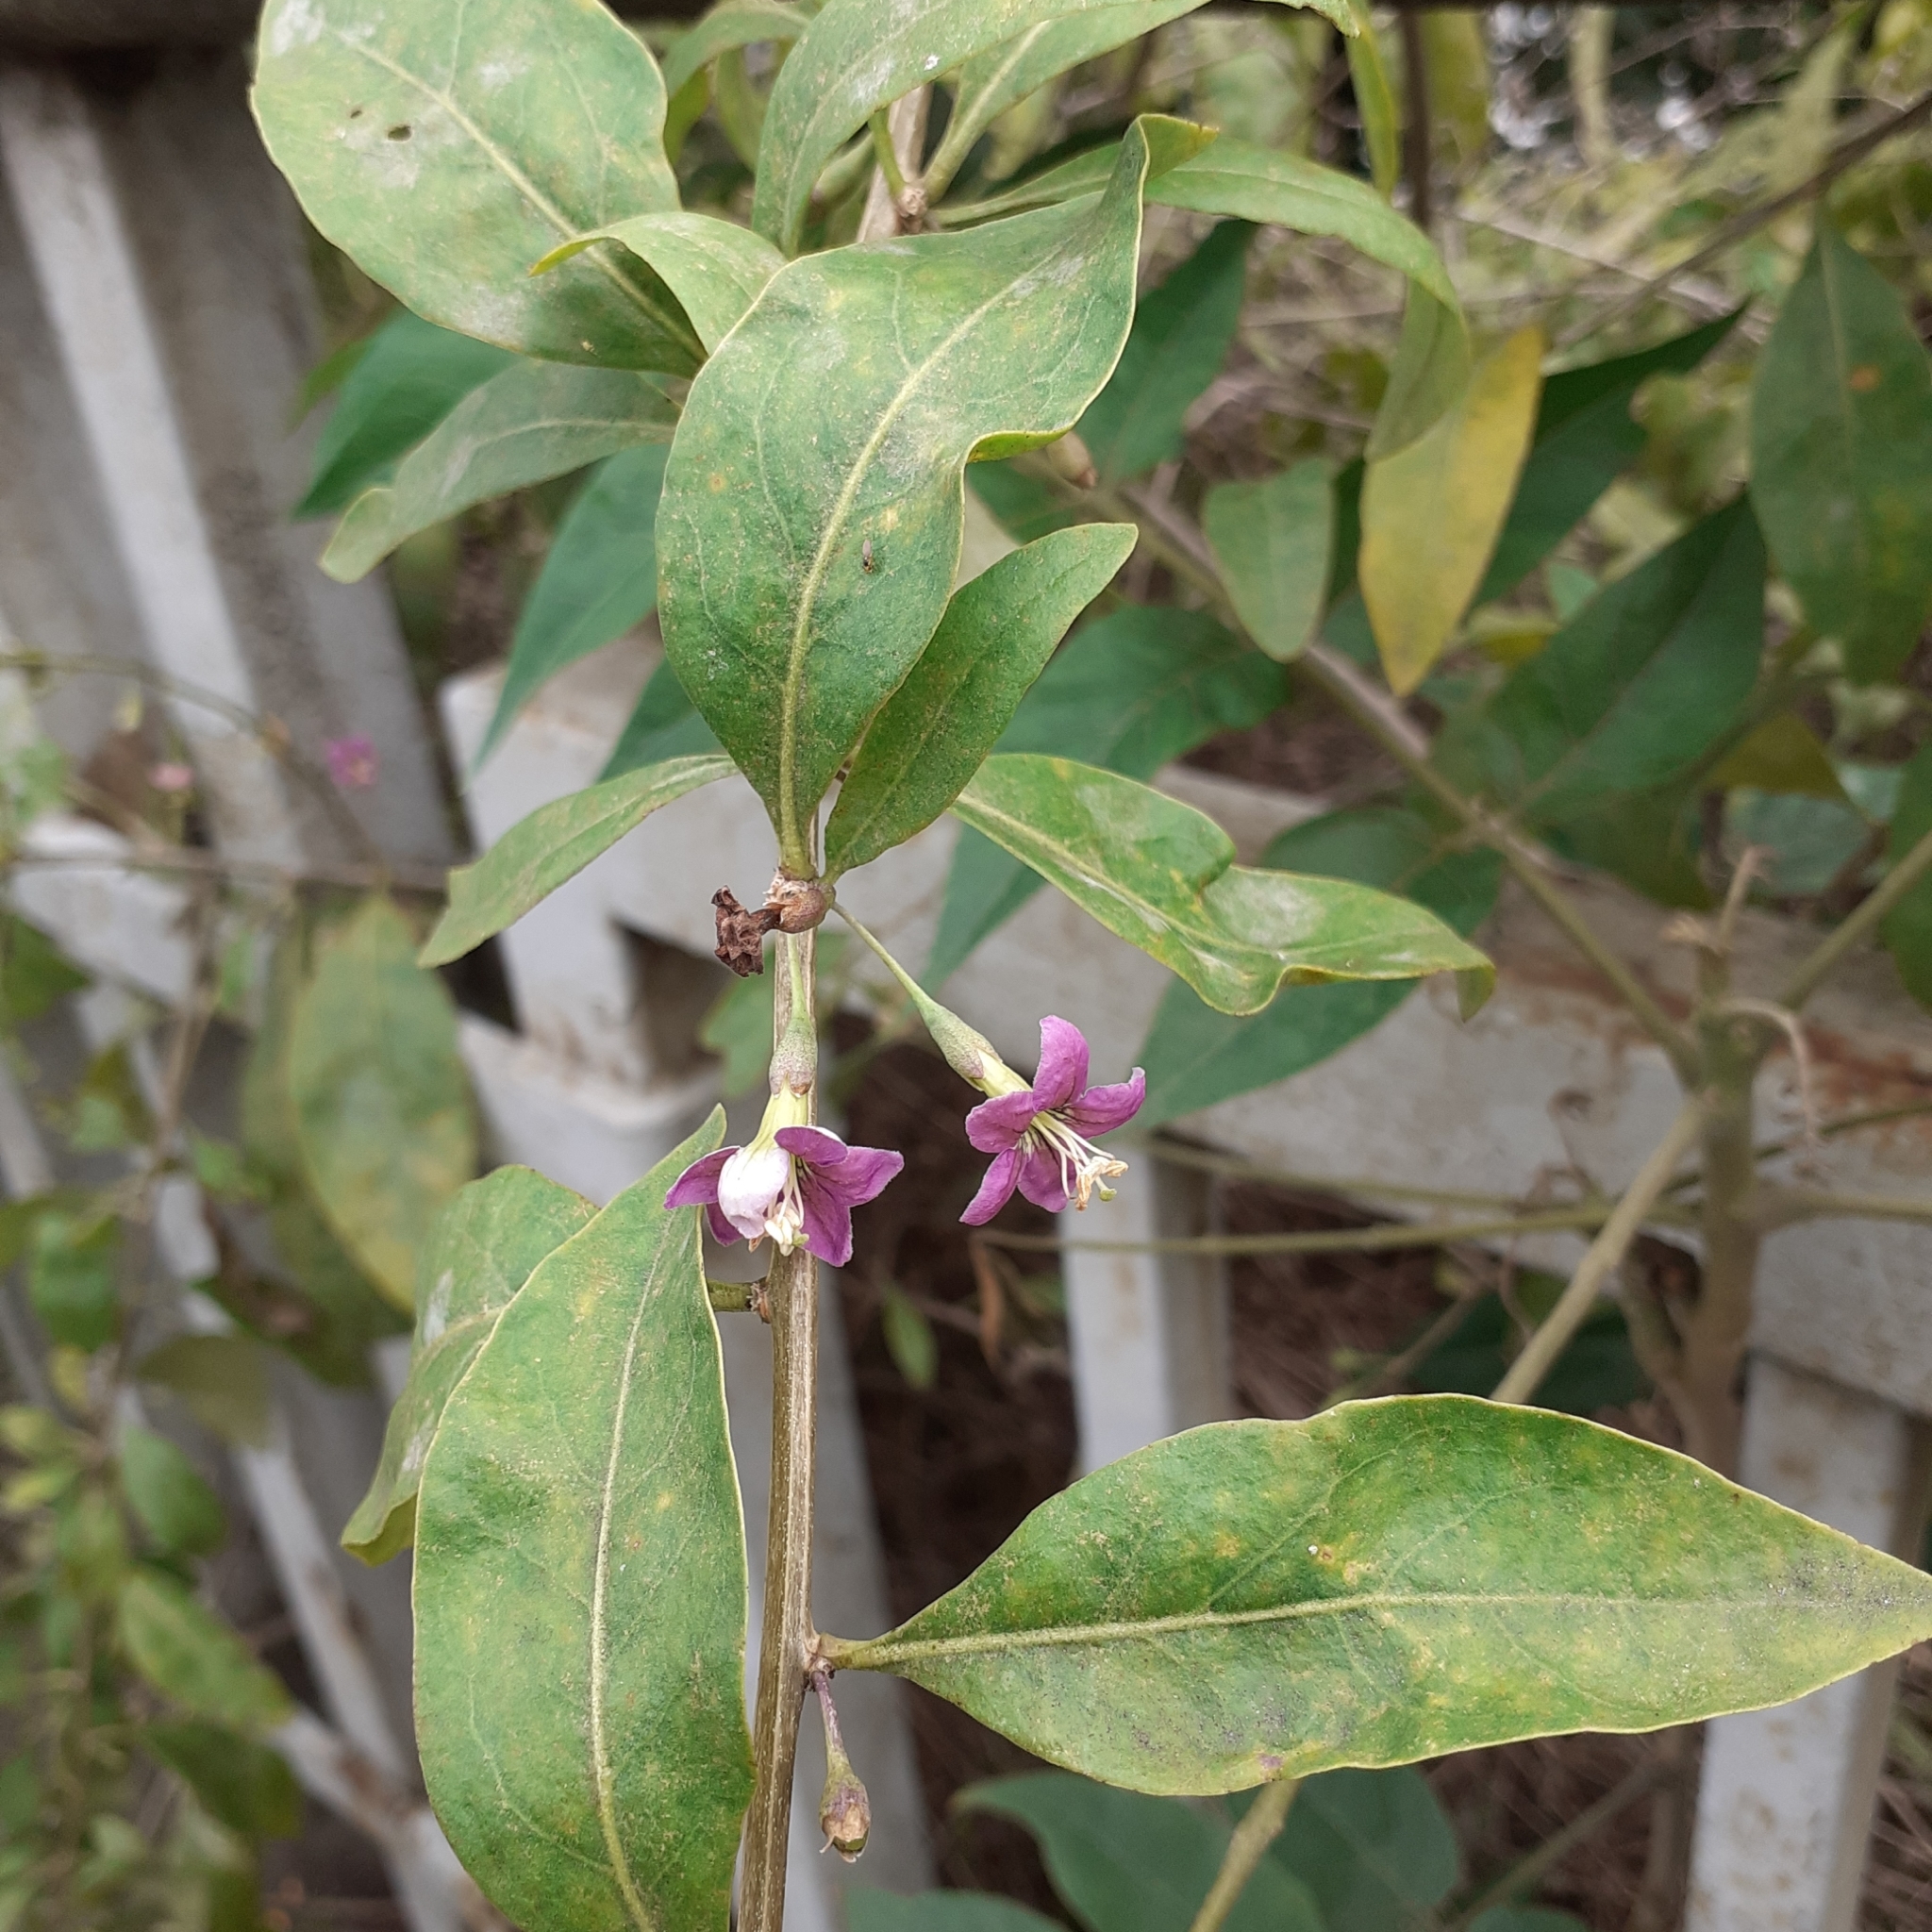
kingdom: Plantae
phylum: Tracheophyta
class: Magnoliopsida
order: Solanales
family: Solanaceae
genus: Lycium
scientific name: Lycium barbarum
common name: Duke of argyll's teaplant
